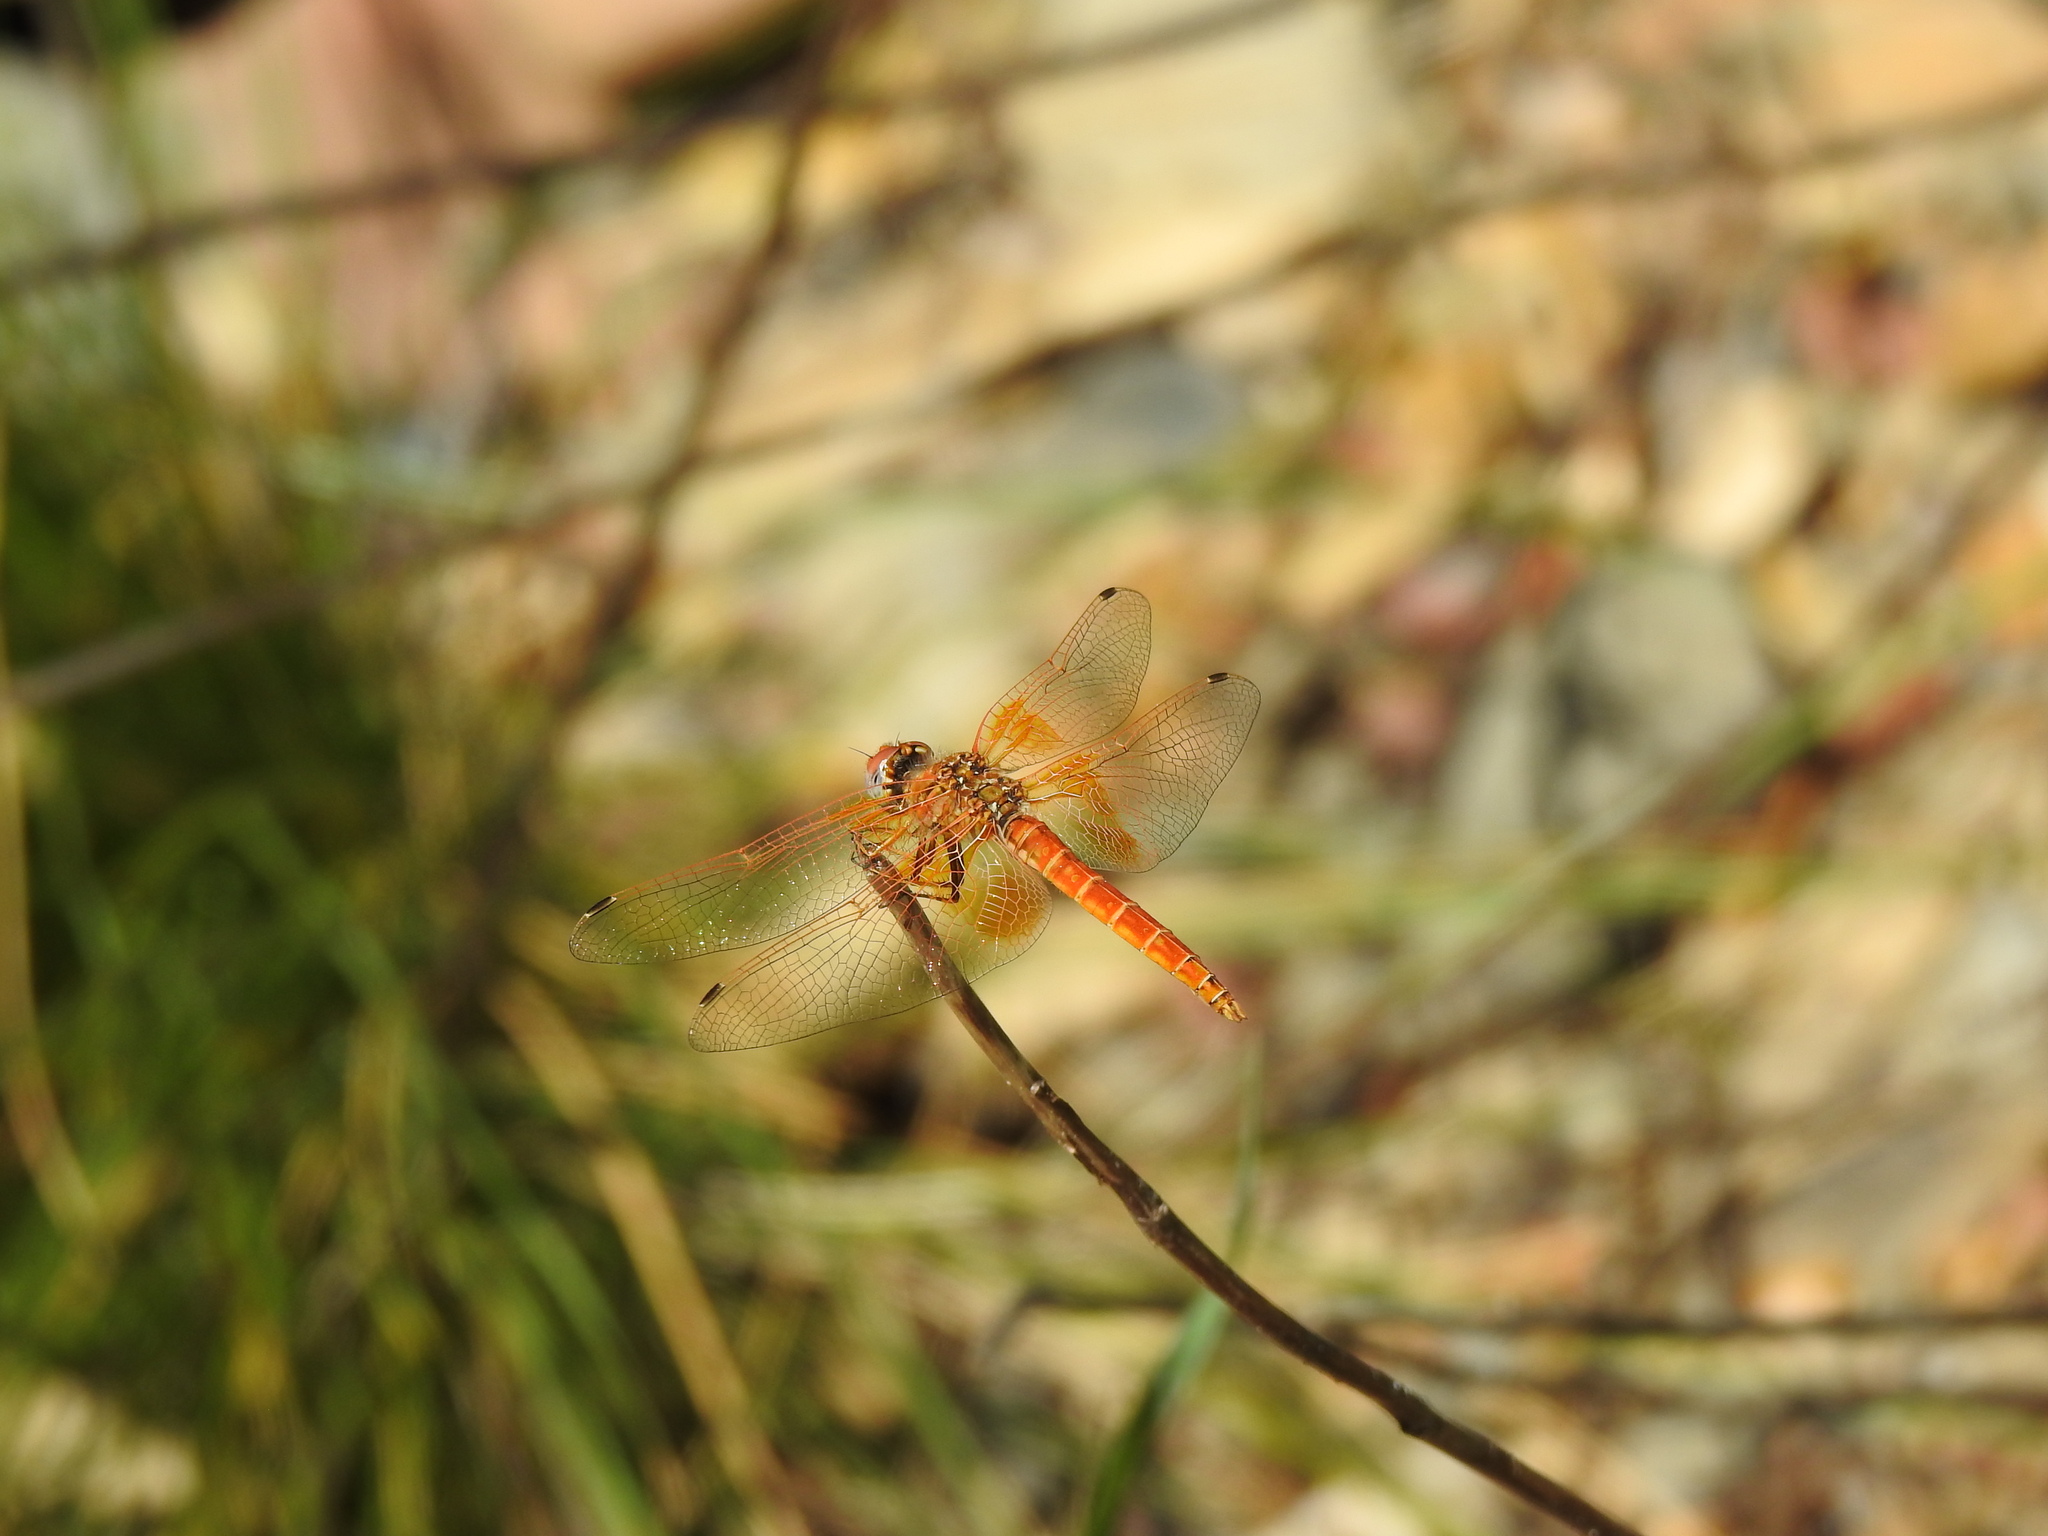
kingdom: Animalia
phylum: Arthropoda
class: Insecta
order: Odonata
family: Libellulidae
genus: Trithemis
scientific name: Trithemis kirbyi
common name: Kirby's dropwing
